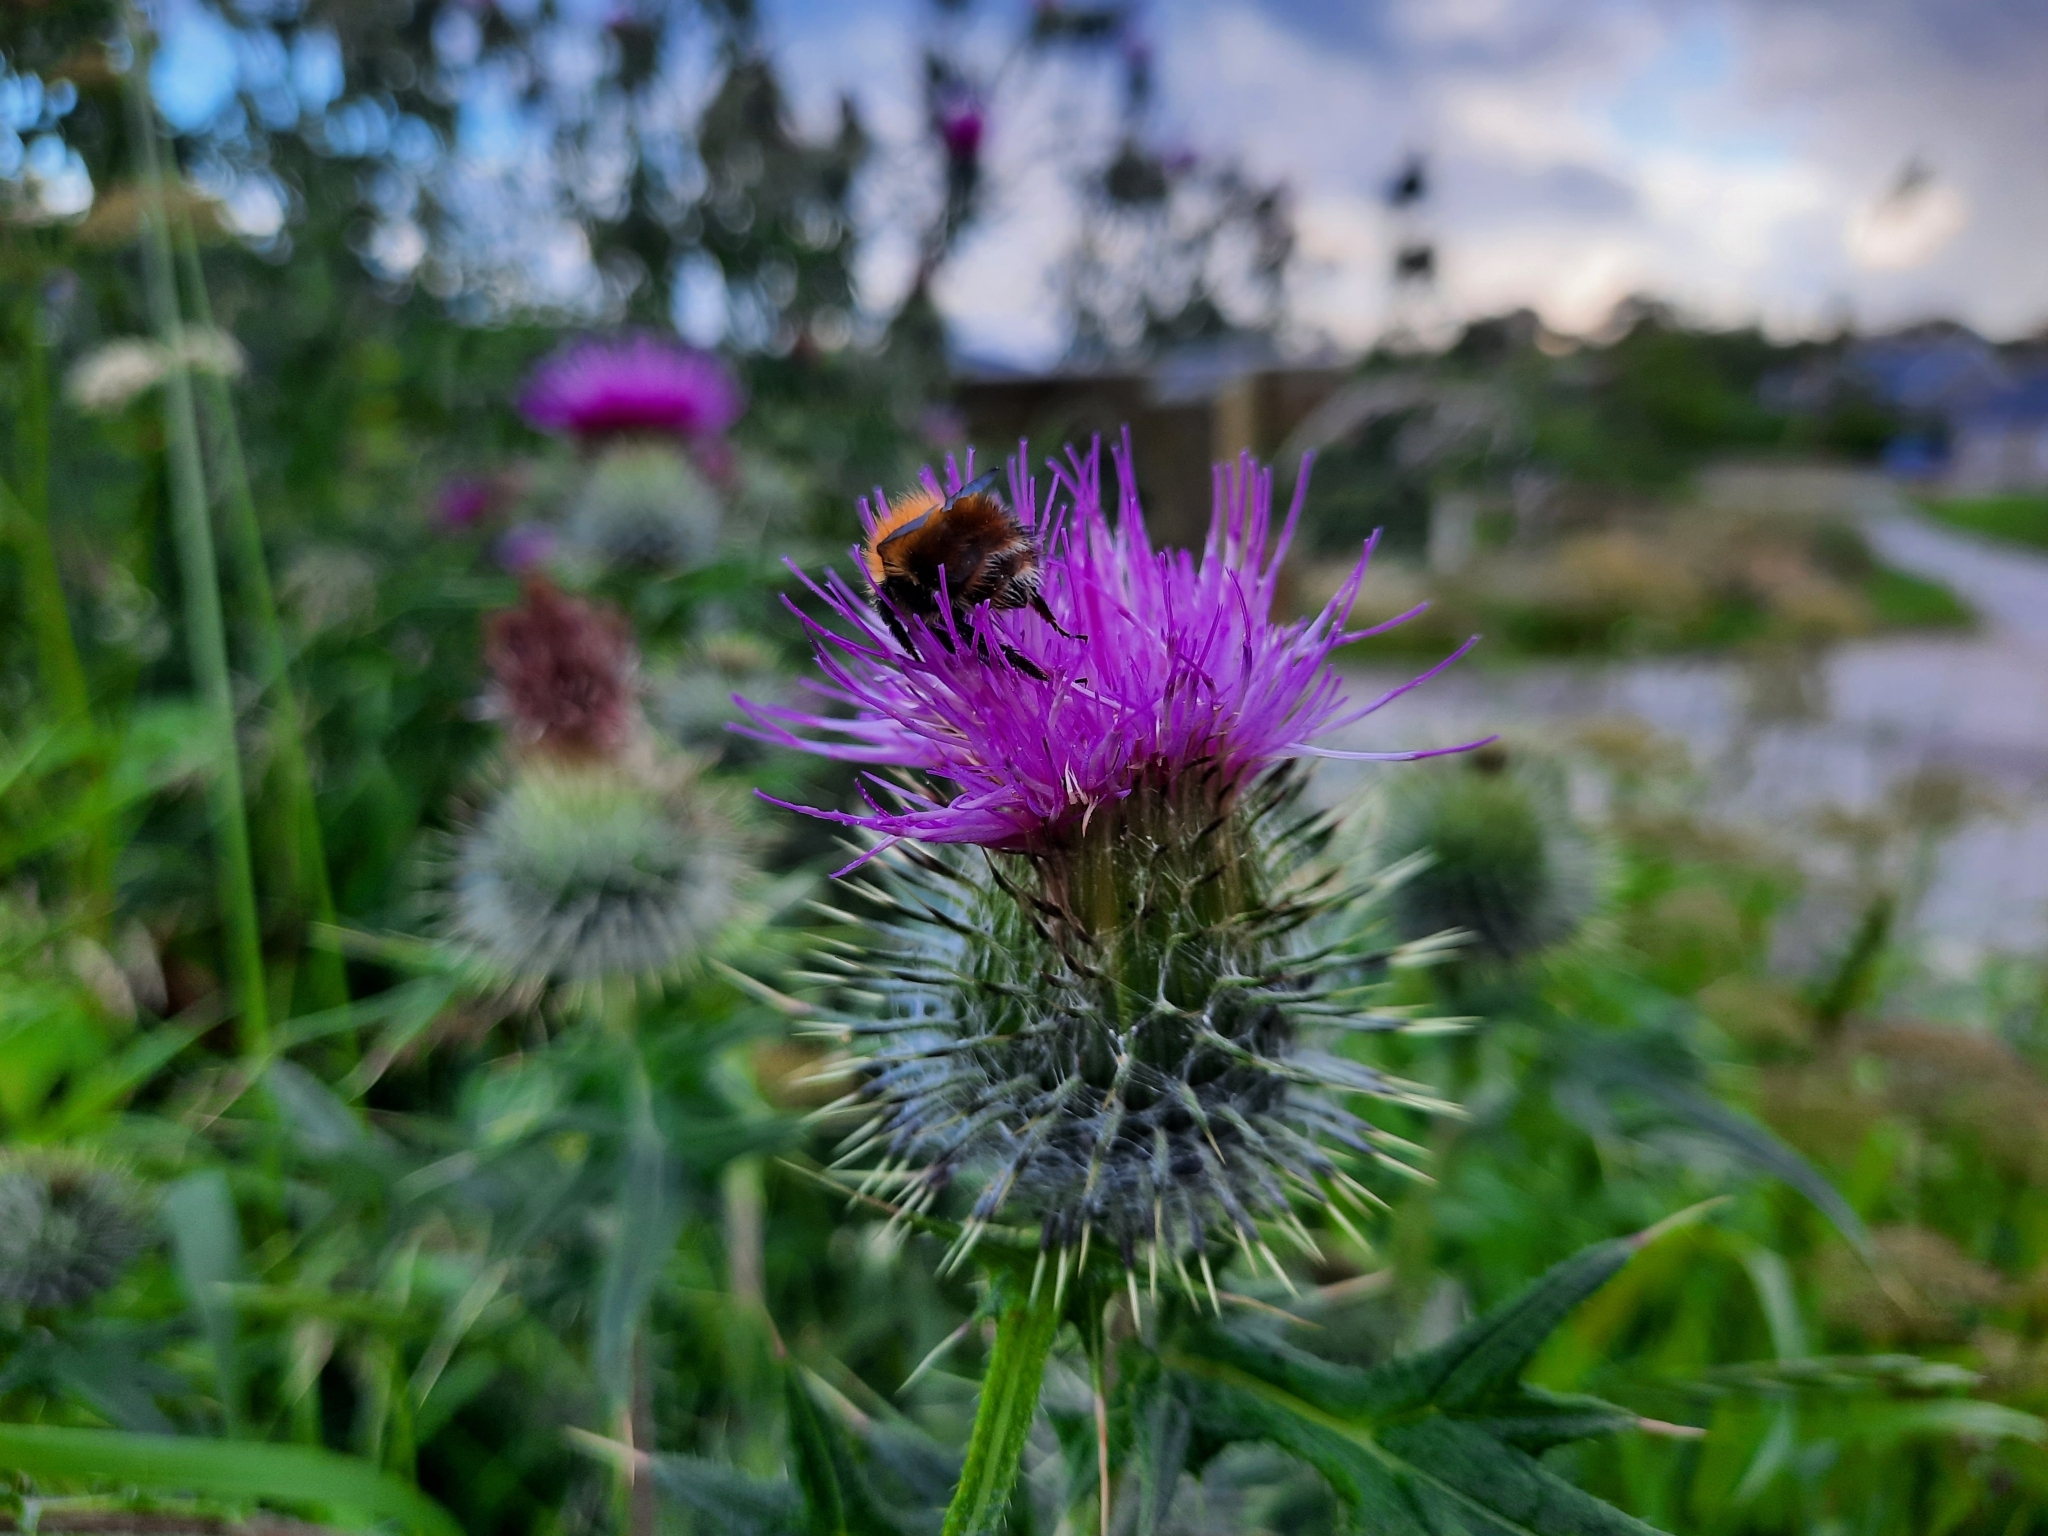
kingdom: Animalia
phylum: Arthropoda
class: Insecta
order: Hymenoptera
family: Apidae
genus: Bombus
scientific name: Bombus pascuorum
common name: Common carder bee
